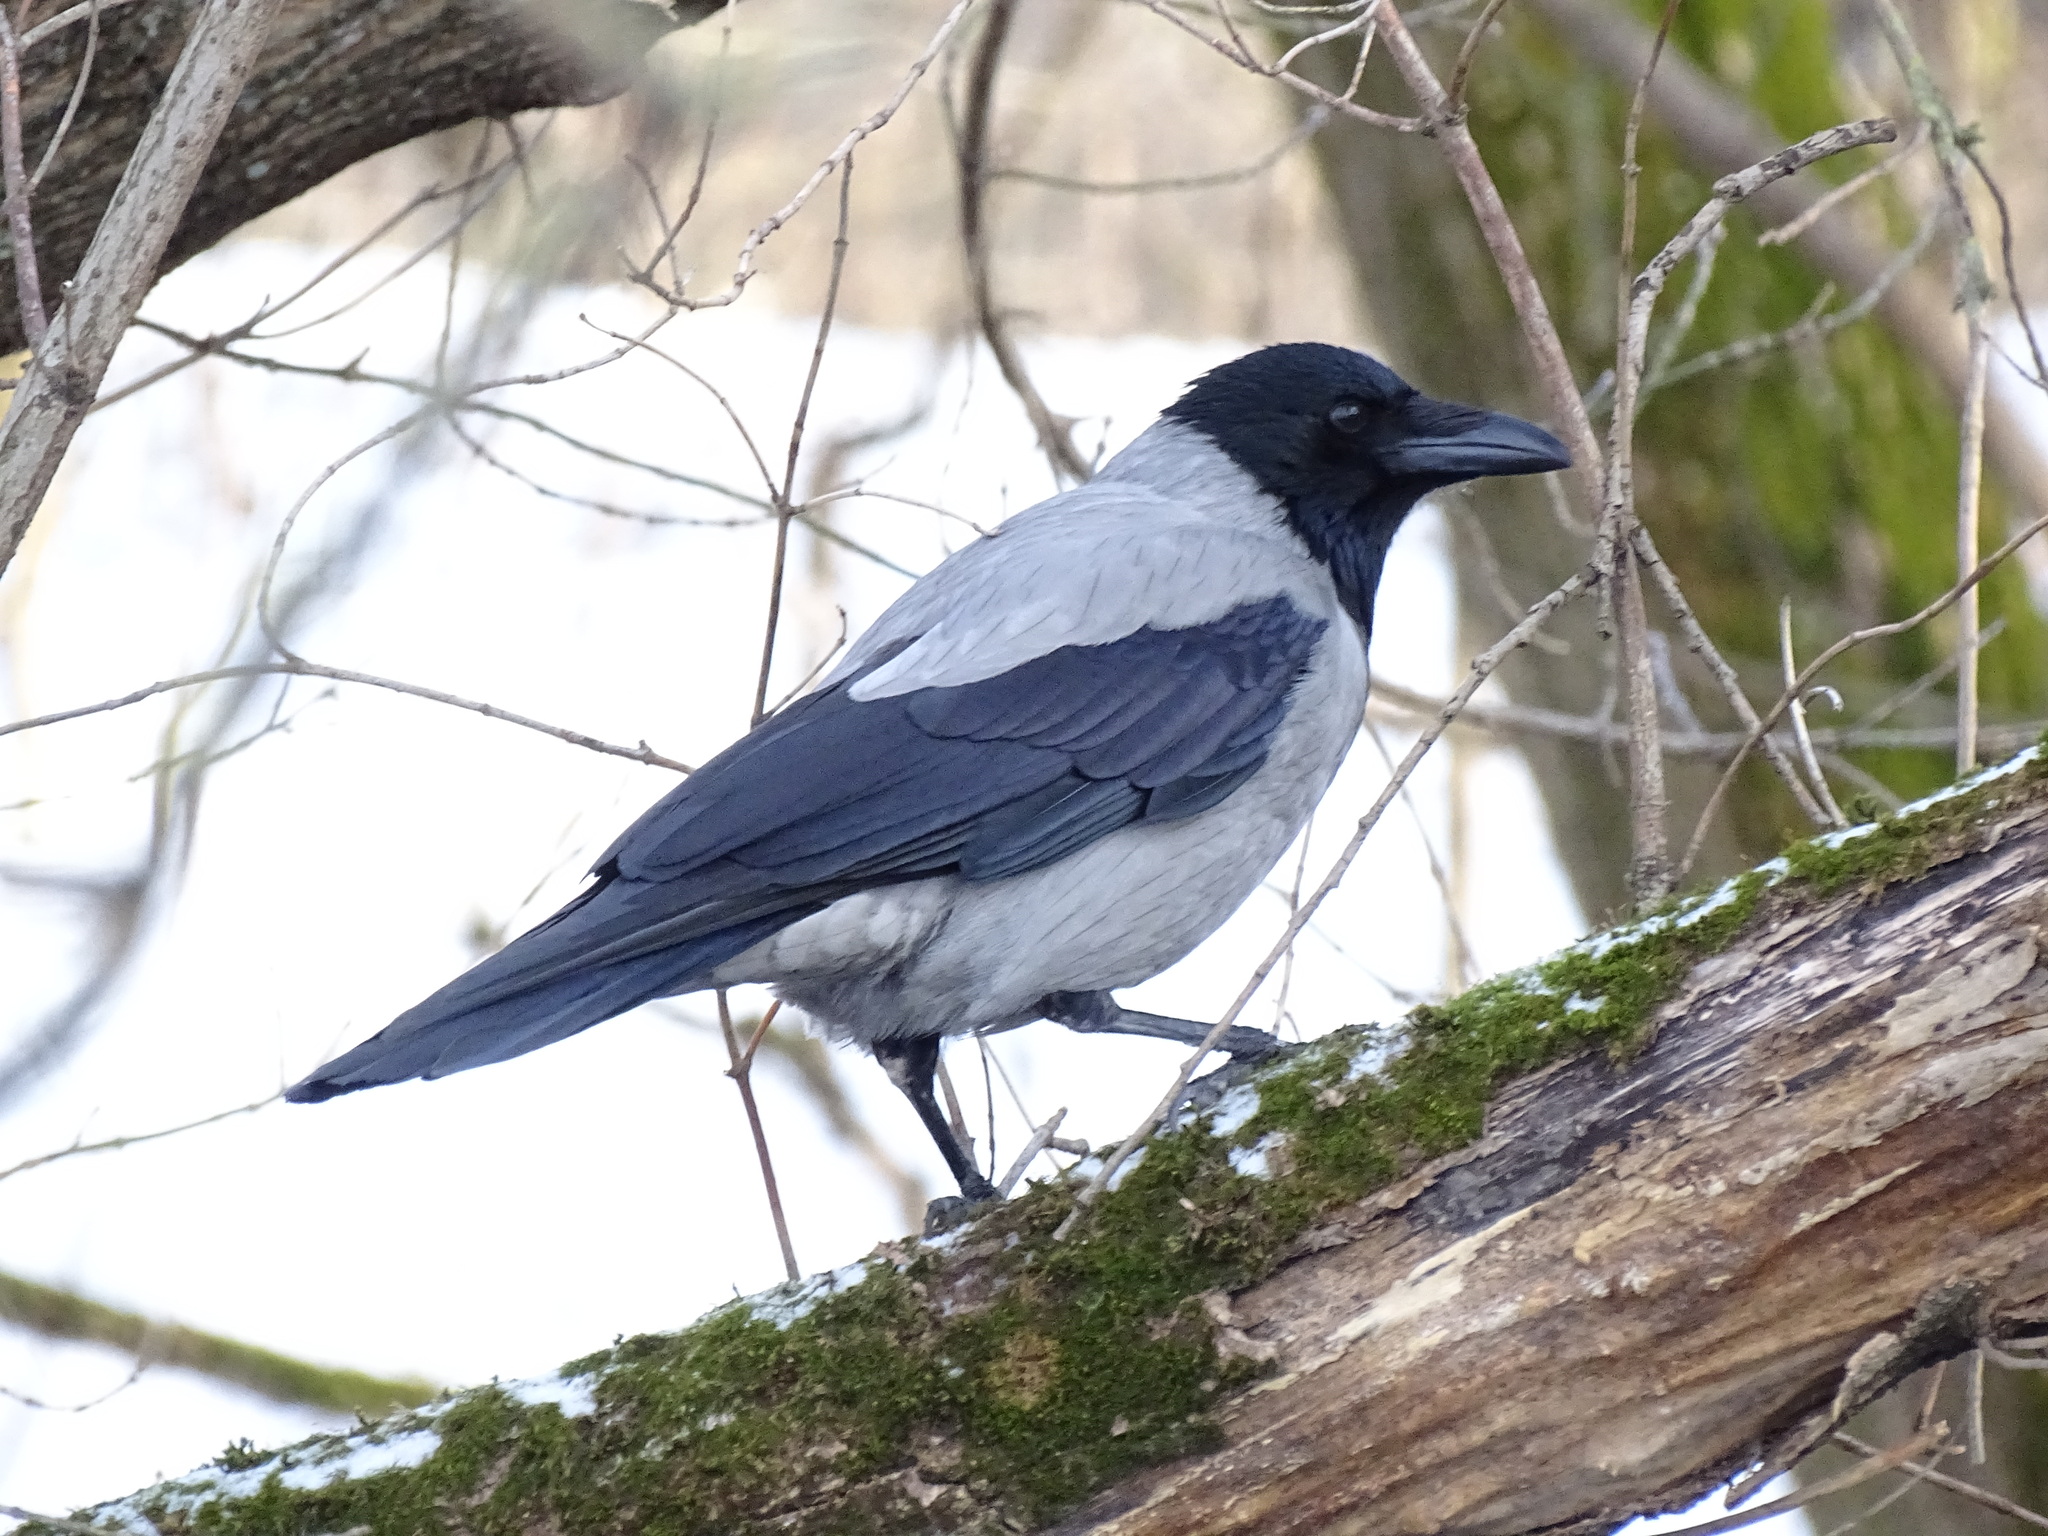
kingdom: Animalia
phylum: Chordata
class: Aves
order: Passeriformes
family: Corvidae
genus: Corvus
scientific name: Corvus cornix
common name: Hooded crow
